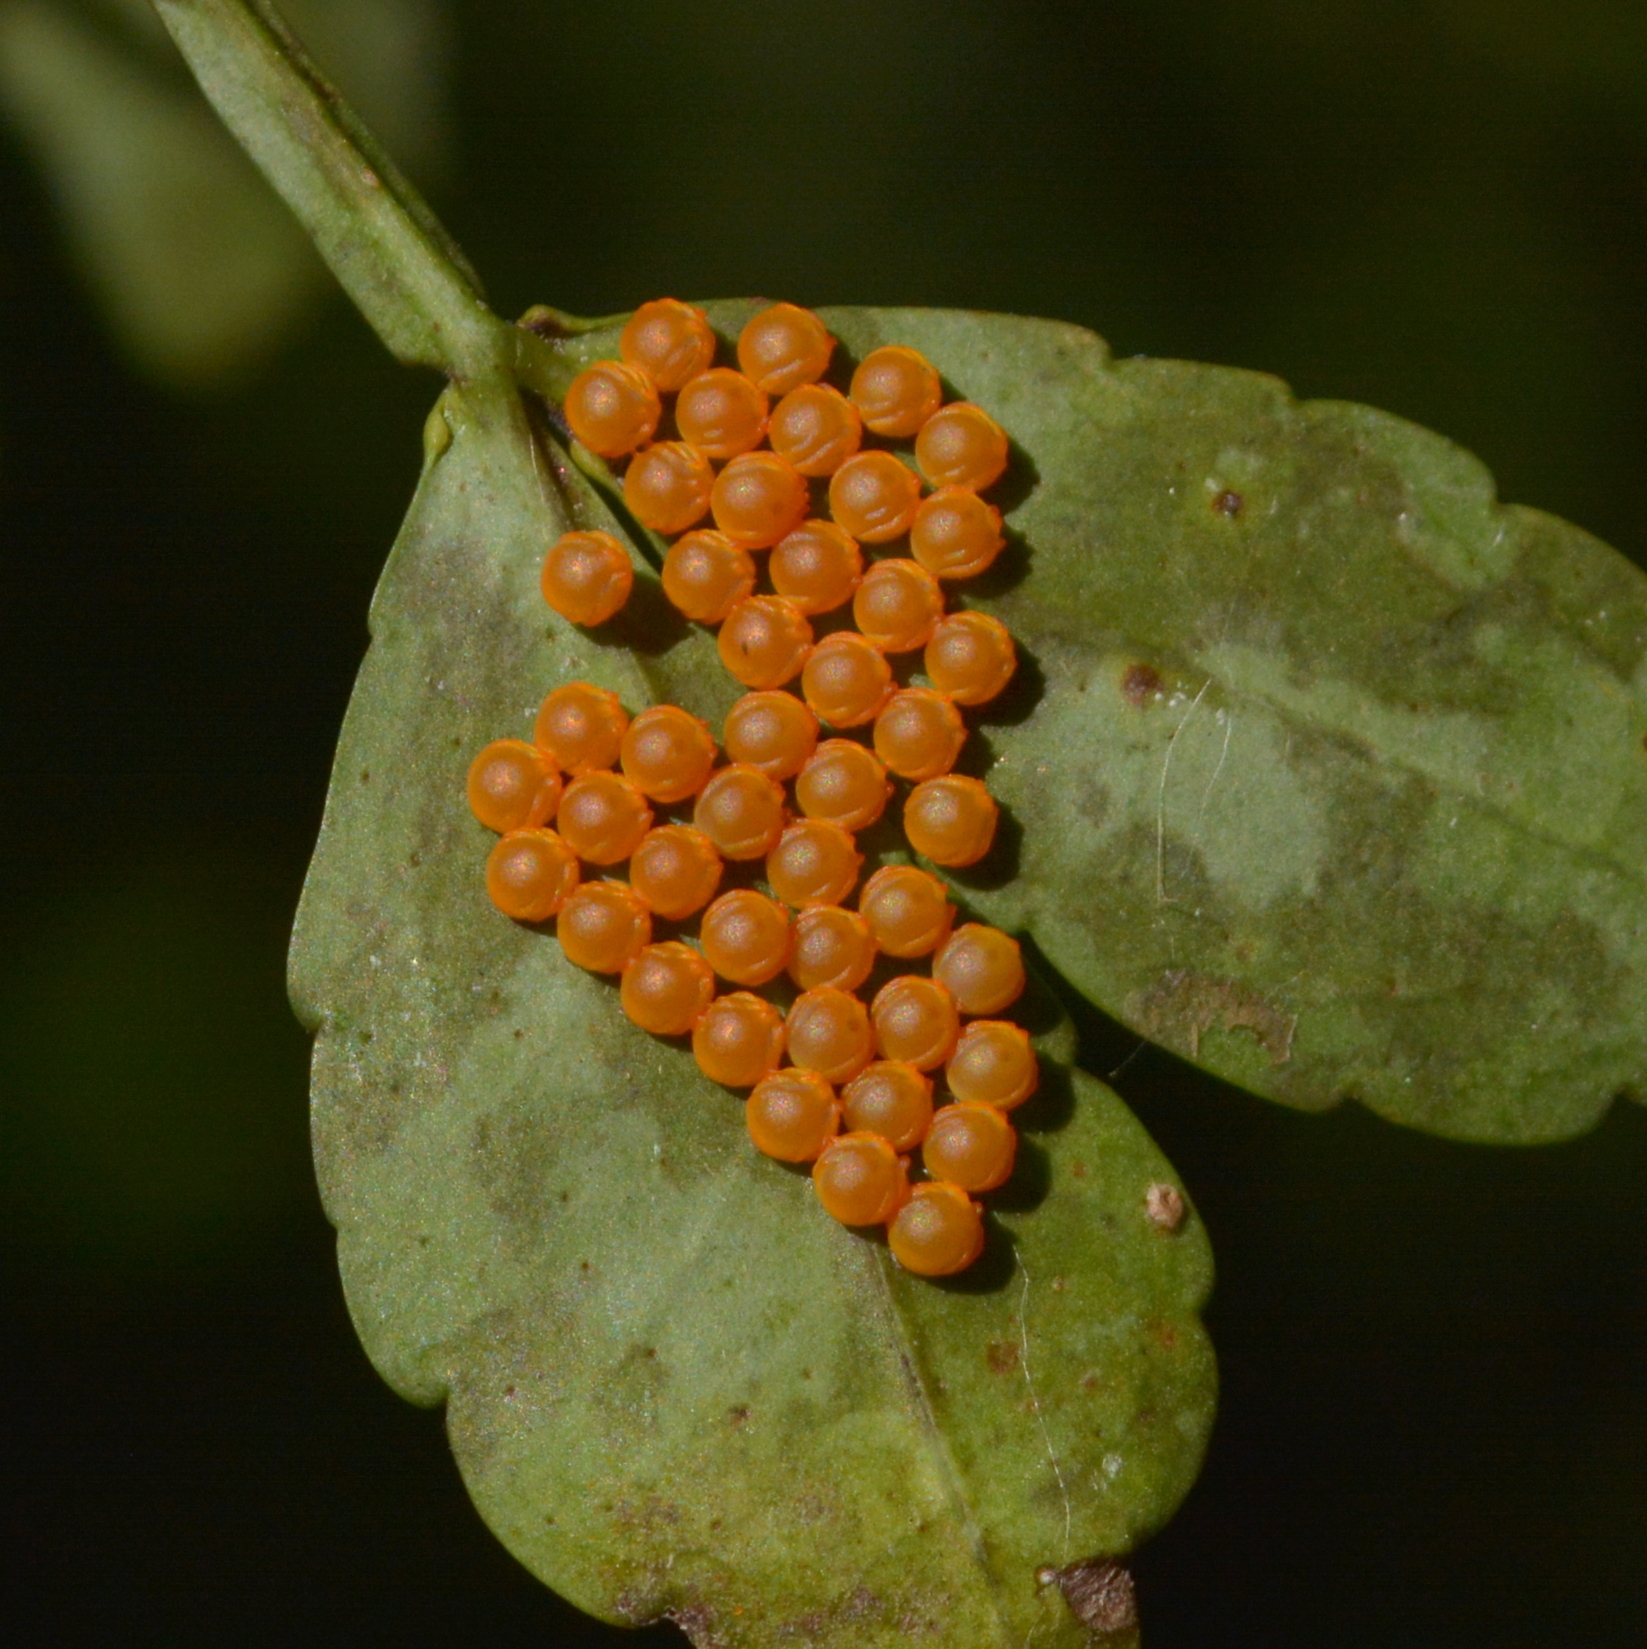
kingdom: Animalia
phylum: Arthropoda
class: Insecta
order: Lepidoptera
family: Papilionidae
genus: Papilio
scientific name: Papilio anchisiades
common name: Idaes swallowtail
